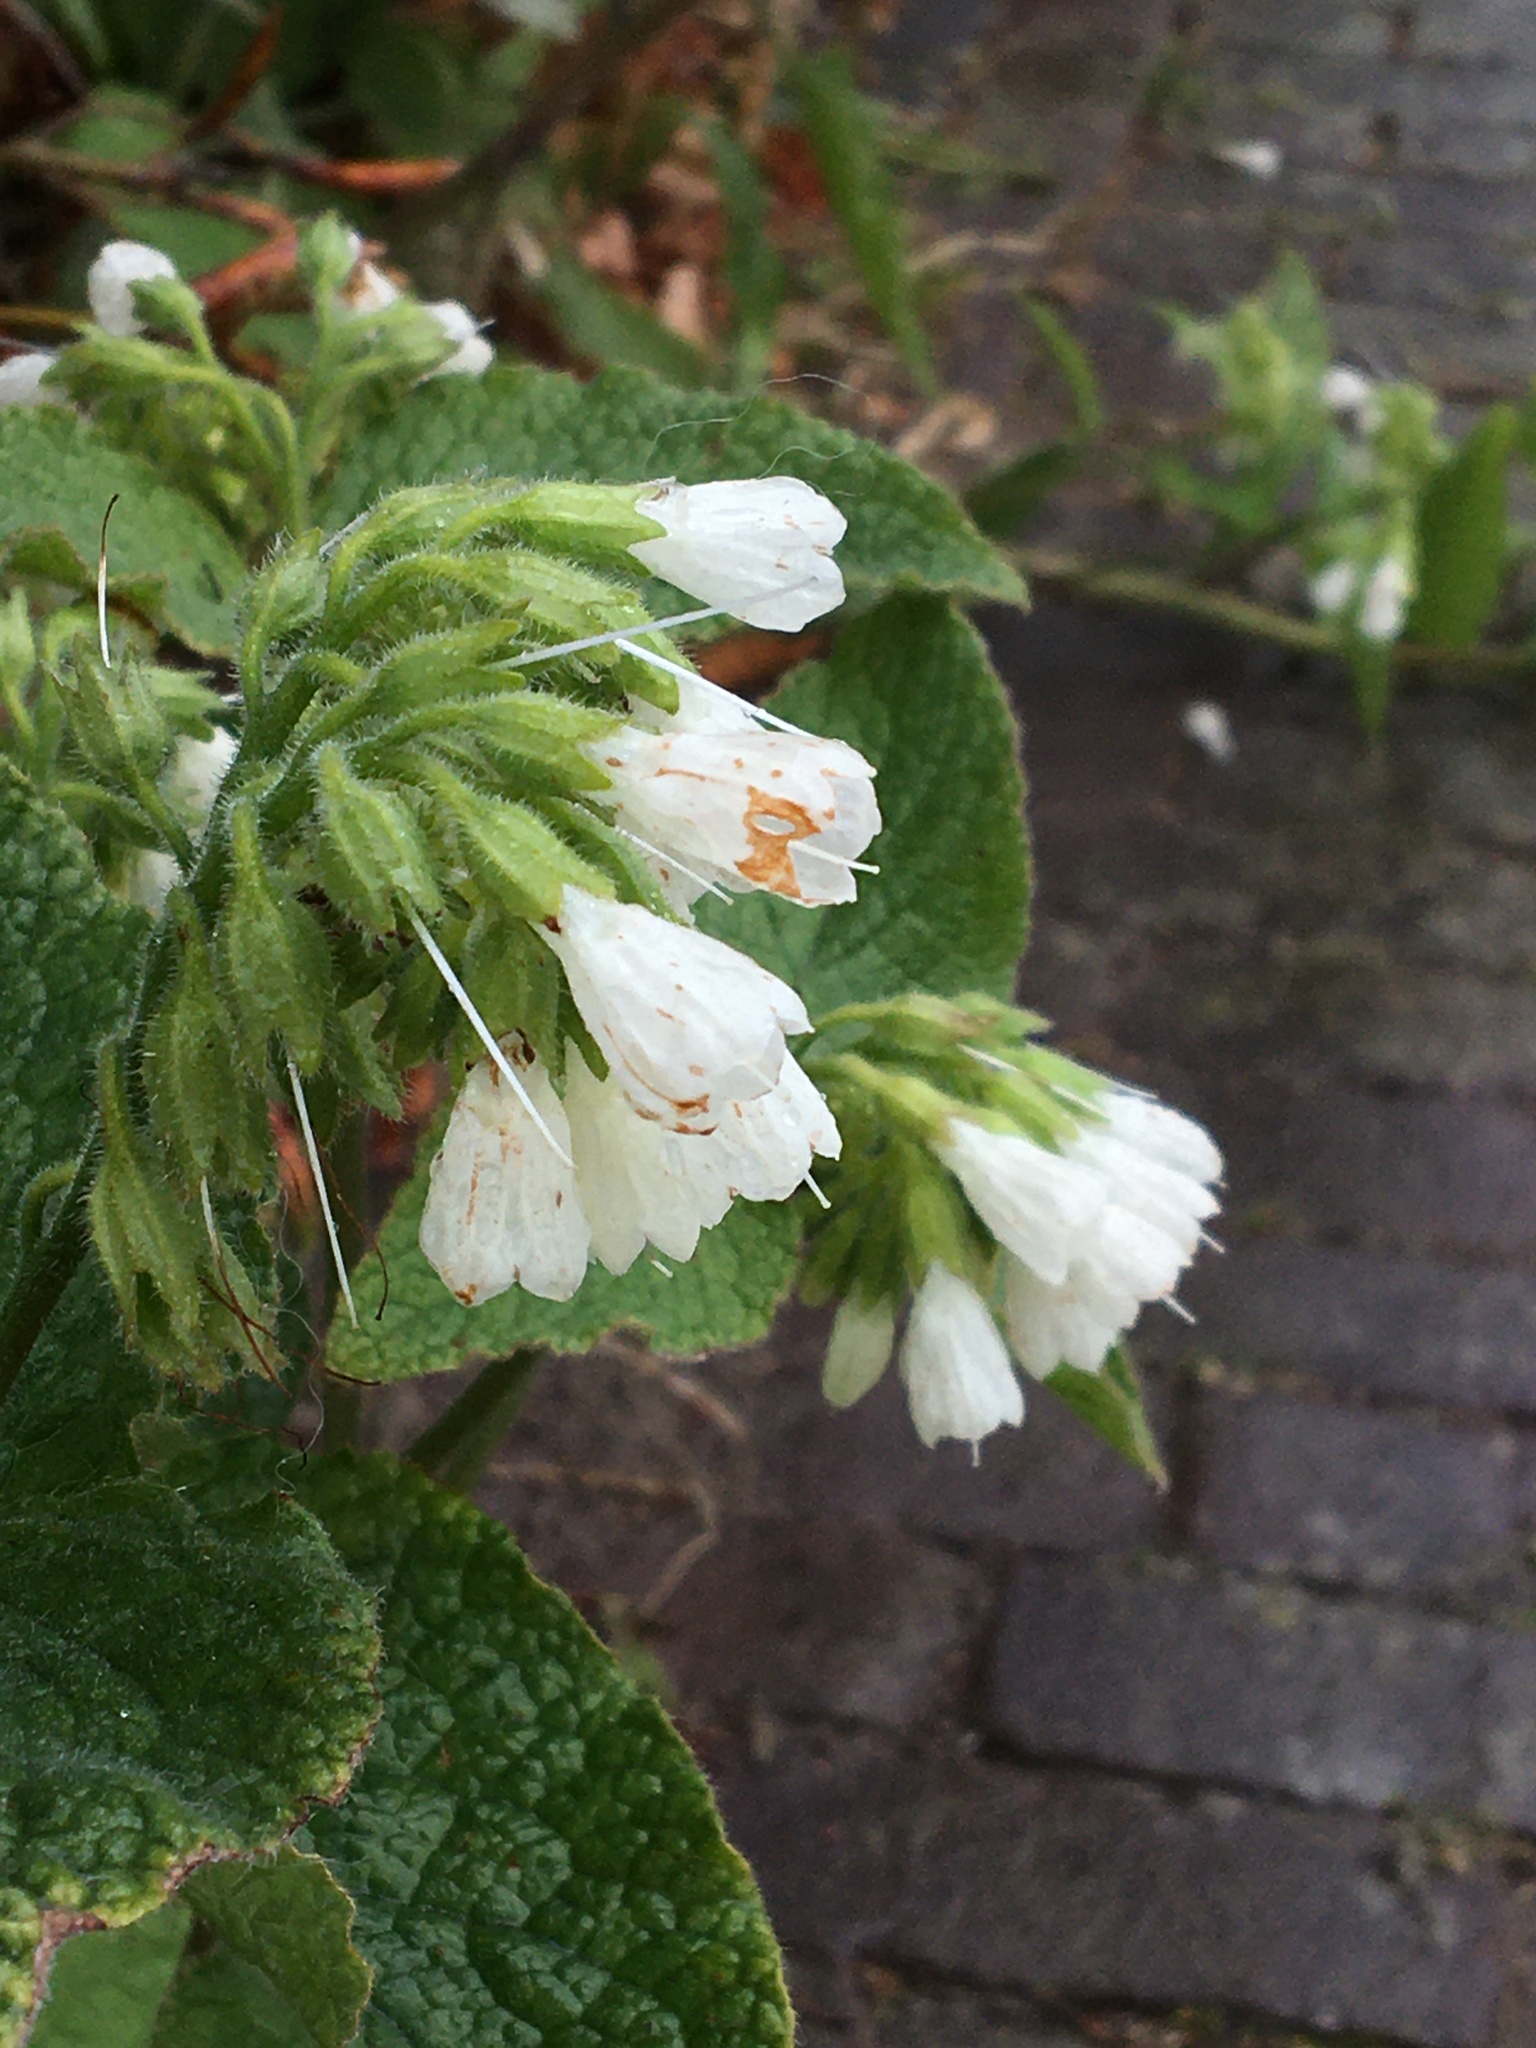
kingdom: Plantae
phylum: Tracheophyta
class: Magnoliopsida
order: Boraginales
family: Boraginaceae
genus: Symphytum
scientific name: Symphytum orientale
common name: White comfrey
